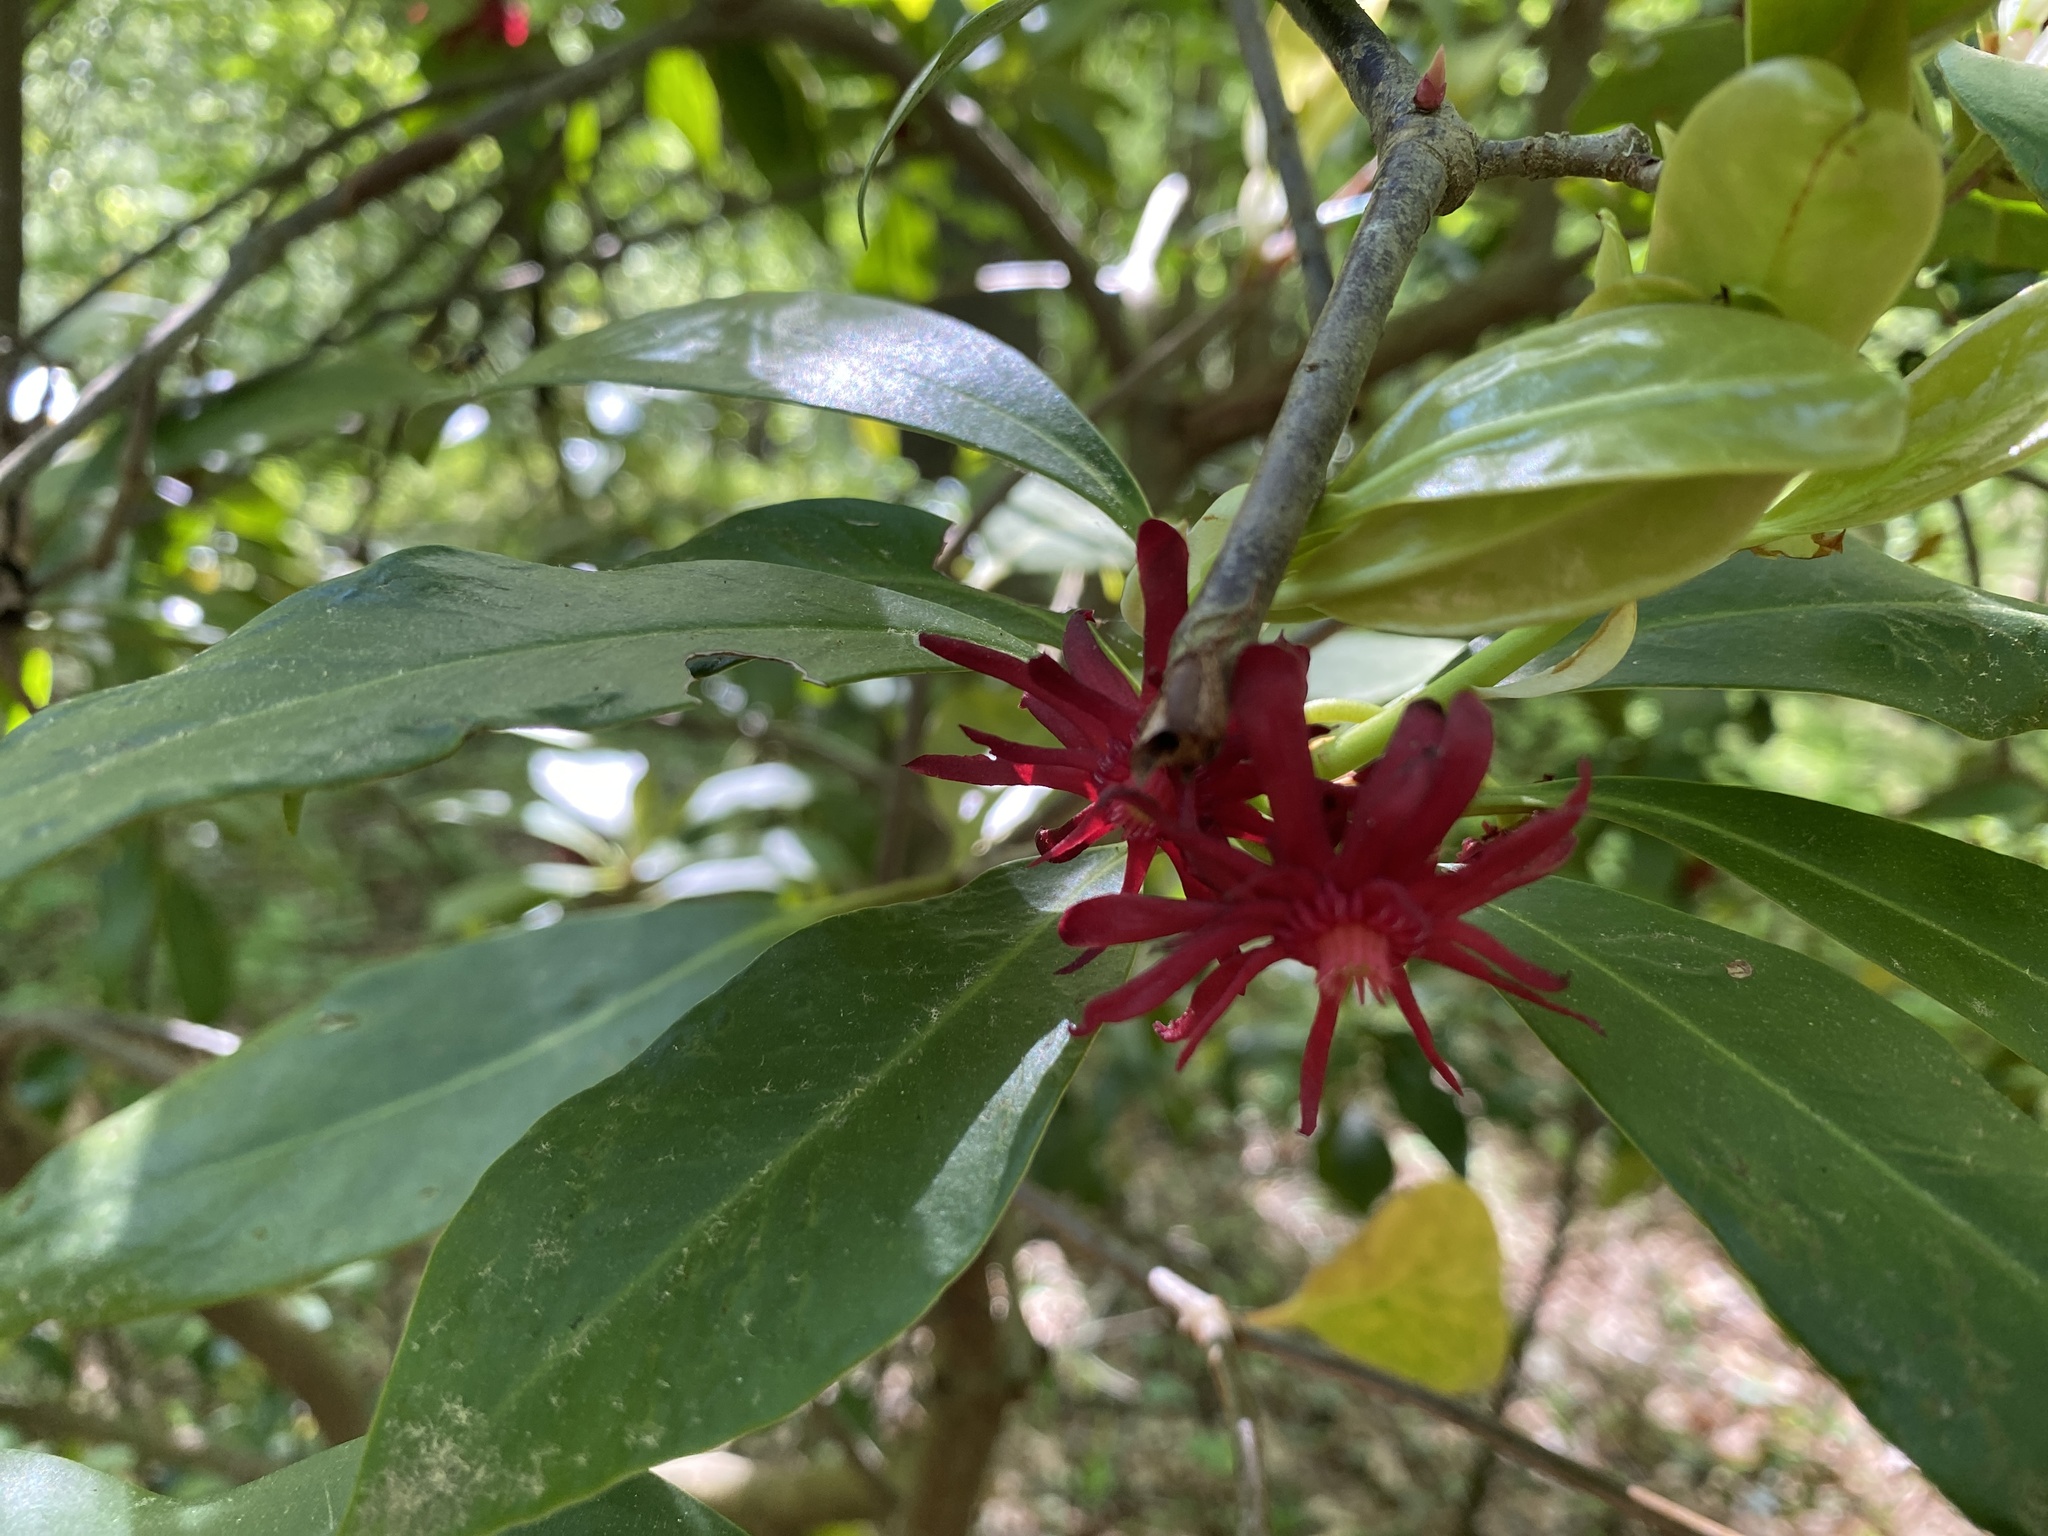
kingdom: Plantae
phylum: Tracheophyta
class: Magnoliopsida
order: Austrobaileyales
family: Schisandraceae
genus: Illicium
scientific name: Illicium floridanum
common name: Florida anisetree
